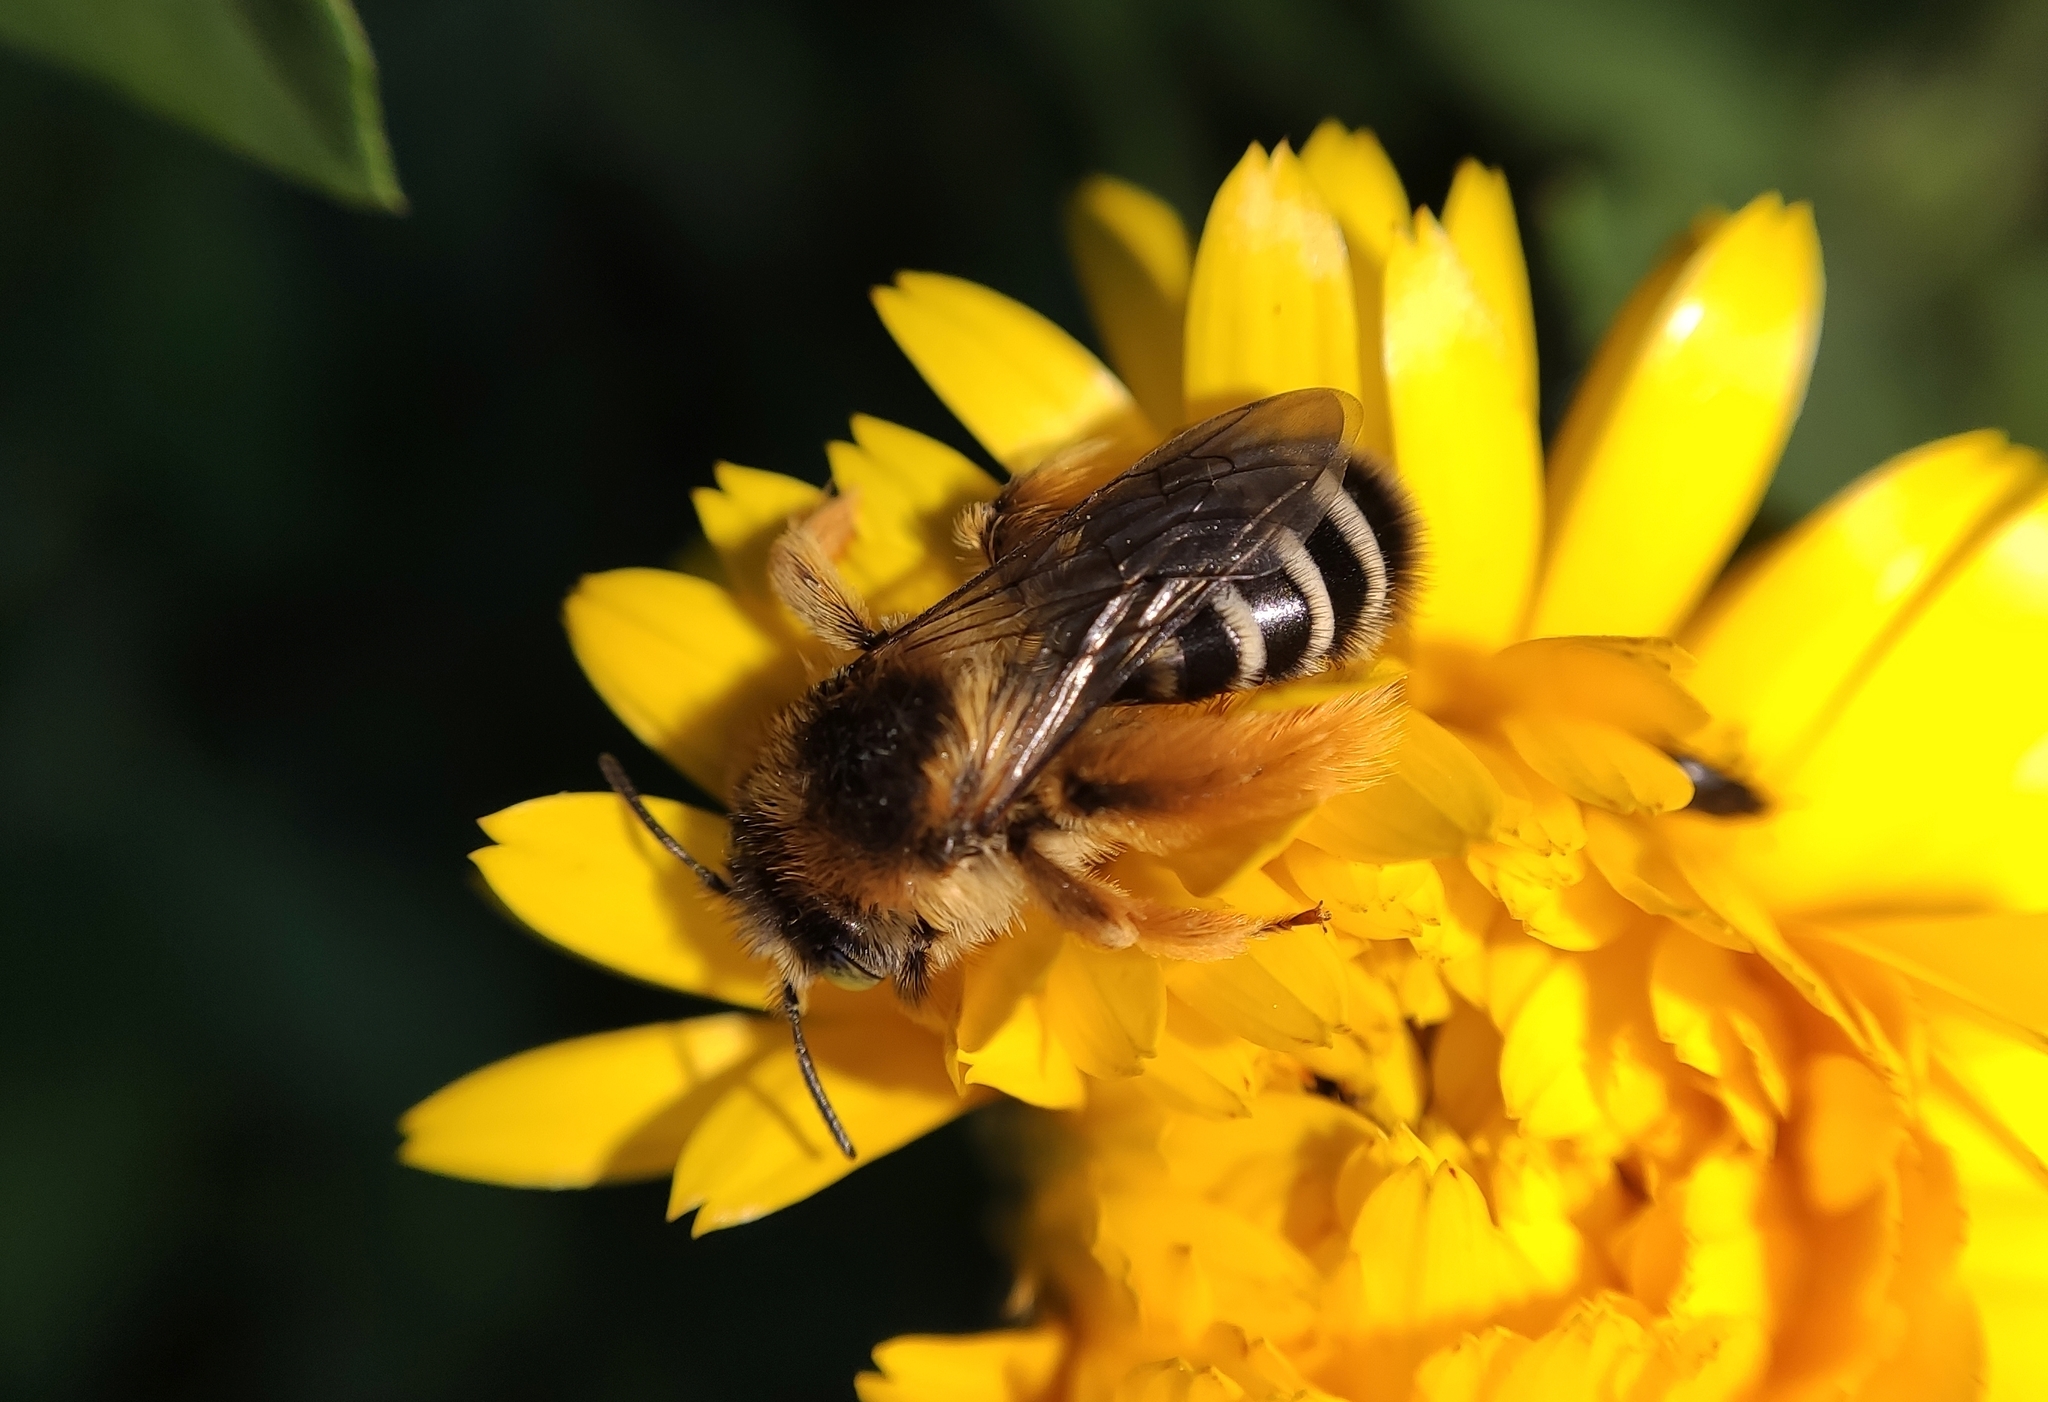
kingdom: Animalia
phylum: Arthropoda
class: Insecta
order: Hymenoptera
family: Melittidae
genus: Dasypoda
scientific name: Dasypoda morawitzi
